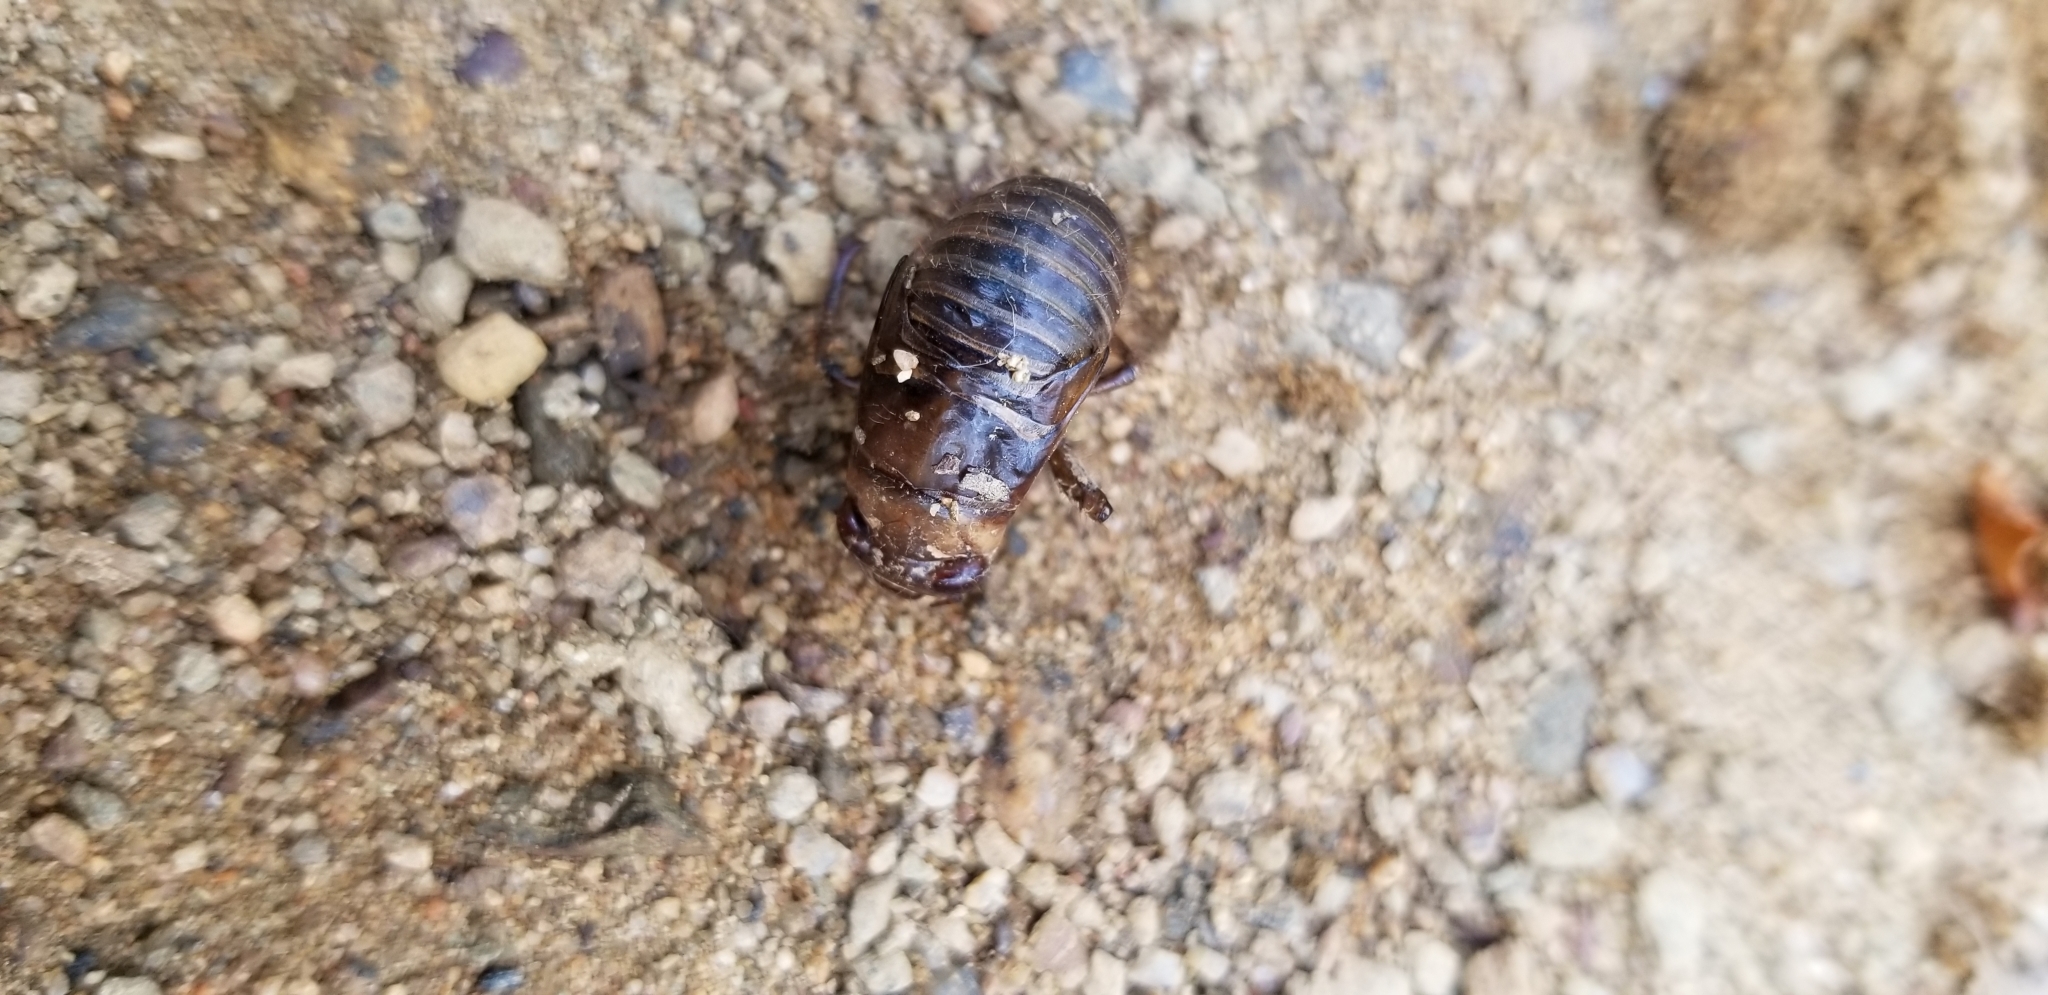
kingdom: Animalia
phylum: Arthropoda
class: Insecta
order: Hemiptera
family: Cicadidae
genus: Magicicada
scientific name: Magicicada
